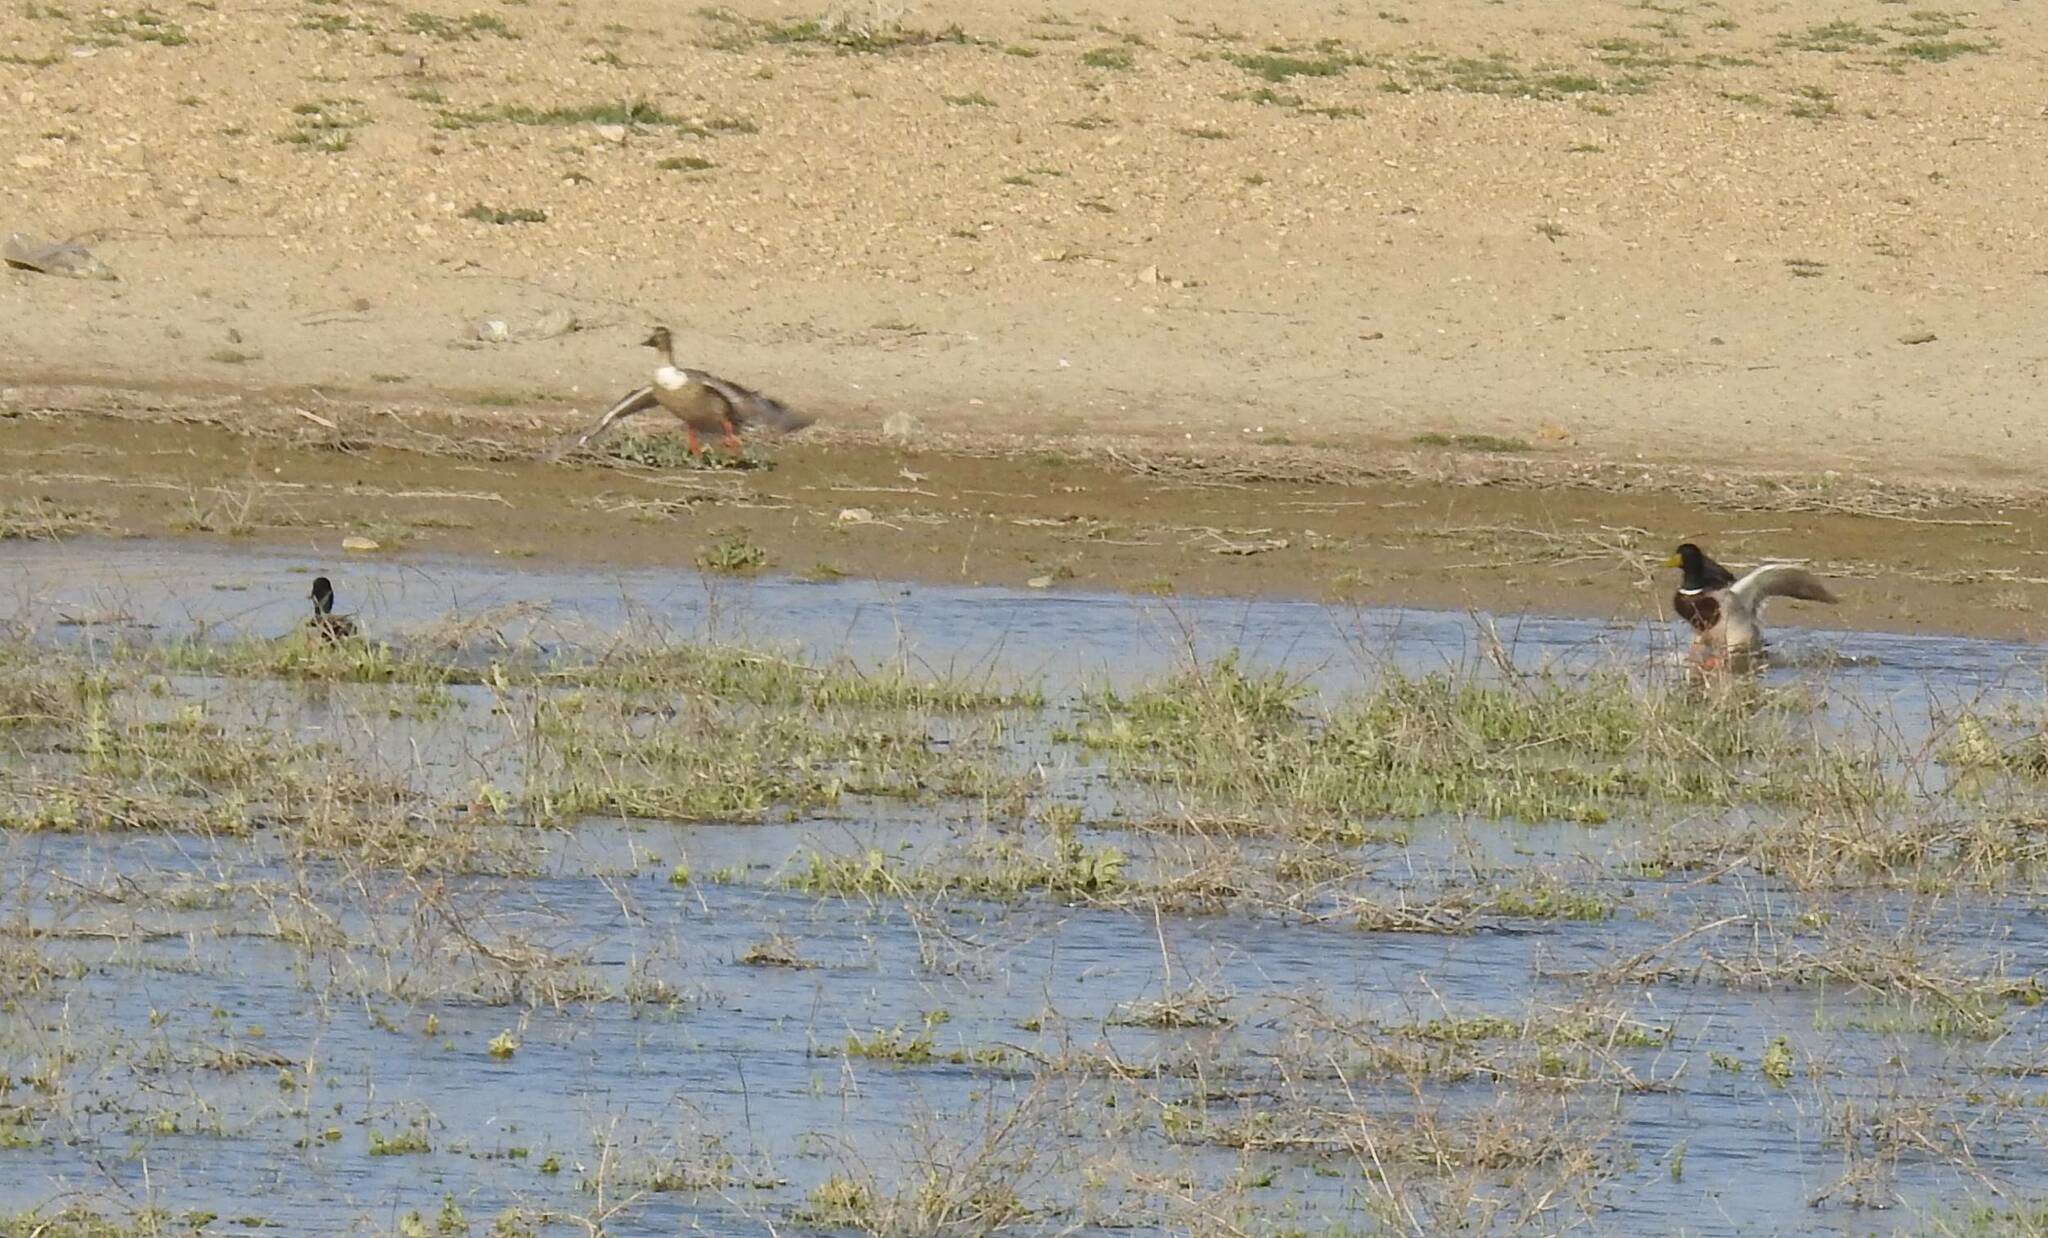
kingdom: Animalia
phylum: Chordata
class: Aves
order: Anseriformes
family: Anatidae
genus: Anas
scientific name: Anas platyrhynchos
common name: Mallard
